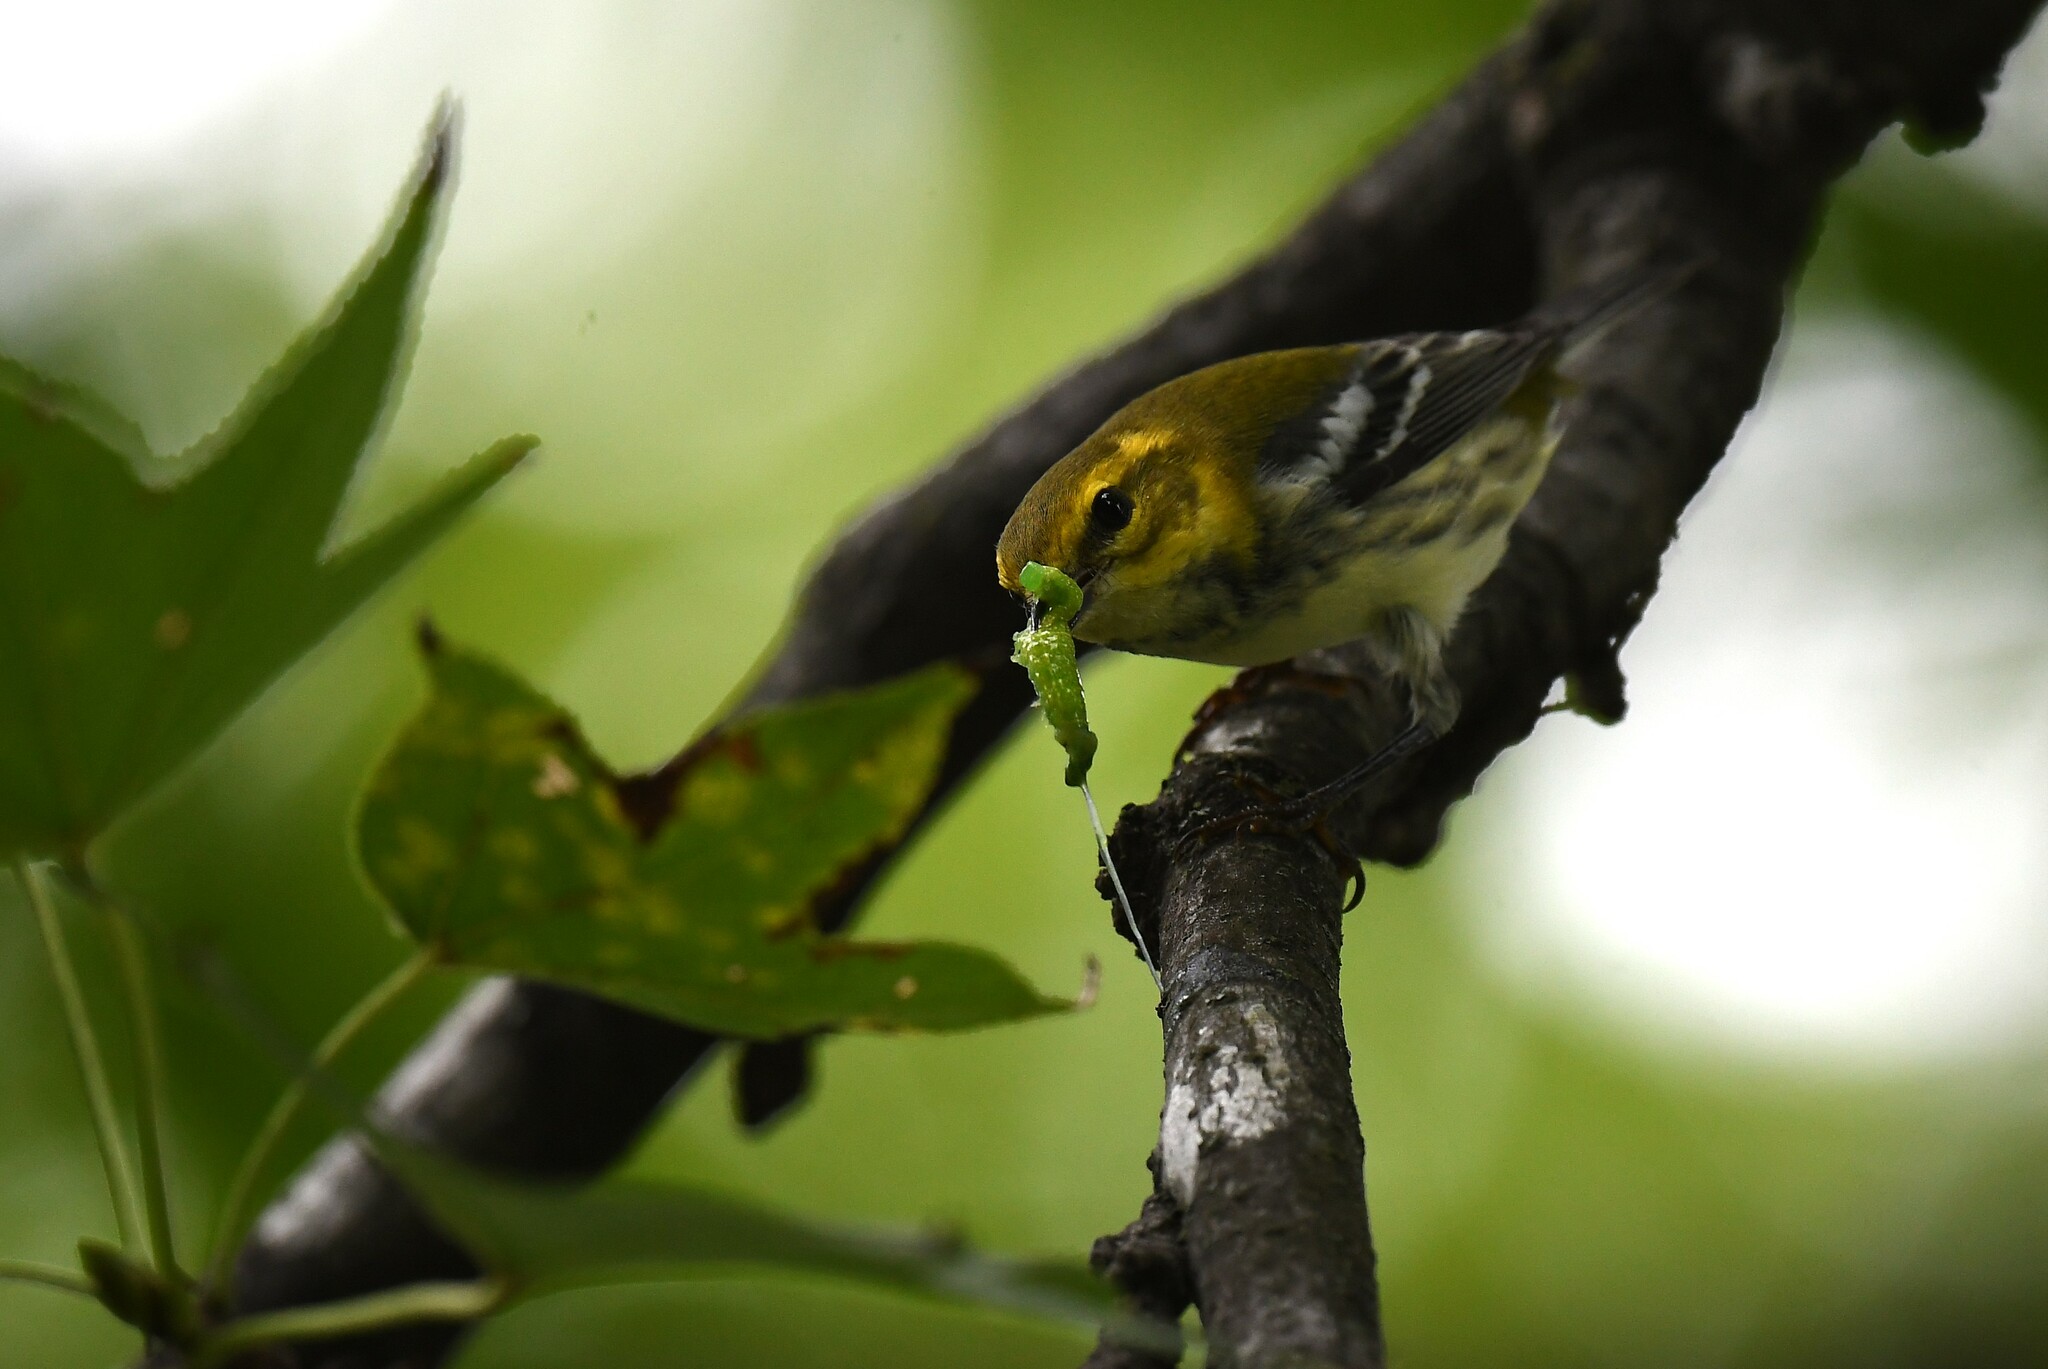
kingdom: Animalia
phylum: Chordata
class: Aves
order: Passeriformes
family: Parulidae
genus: Setophaga
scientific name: Setophaga virens
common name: Black-throated green warbler
